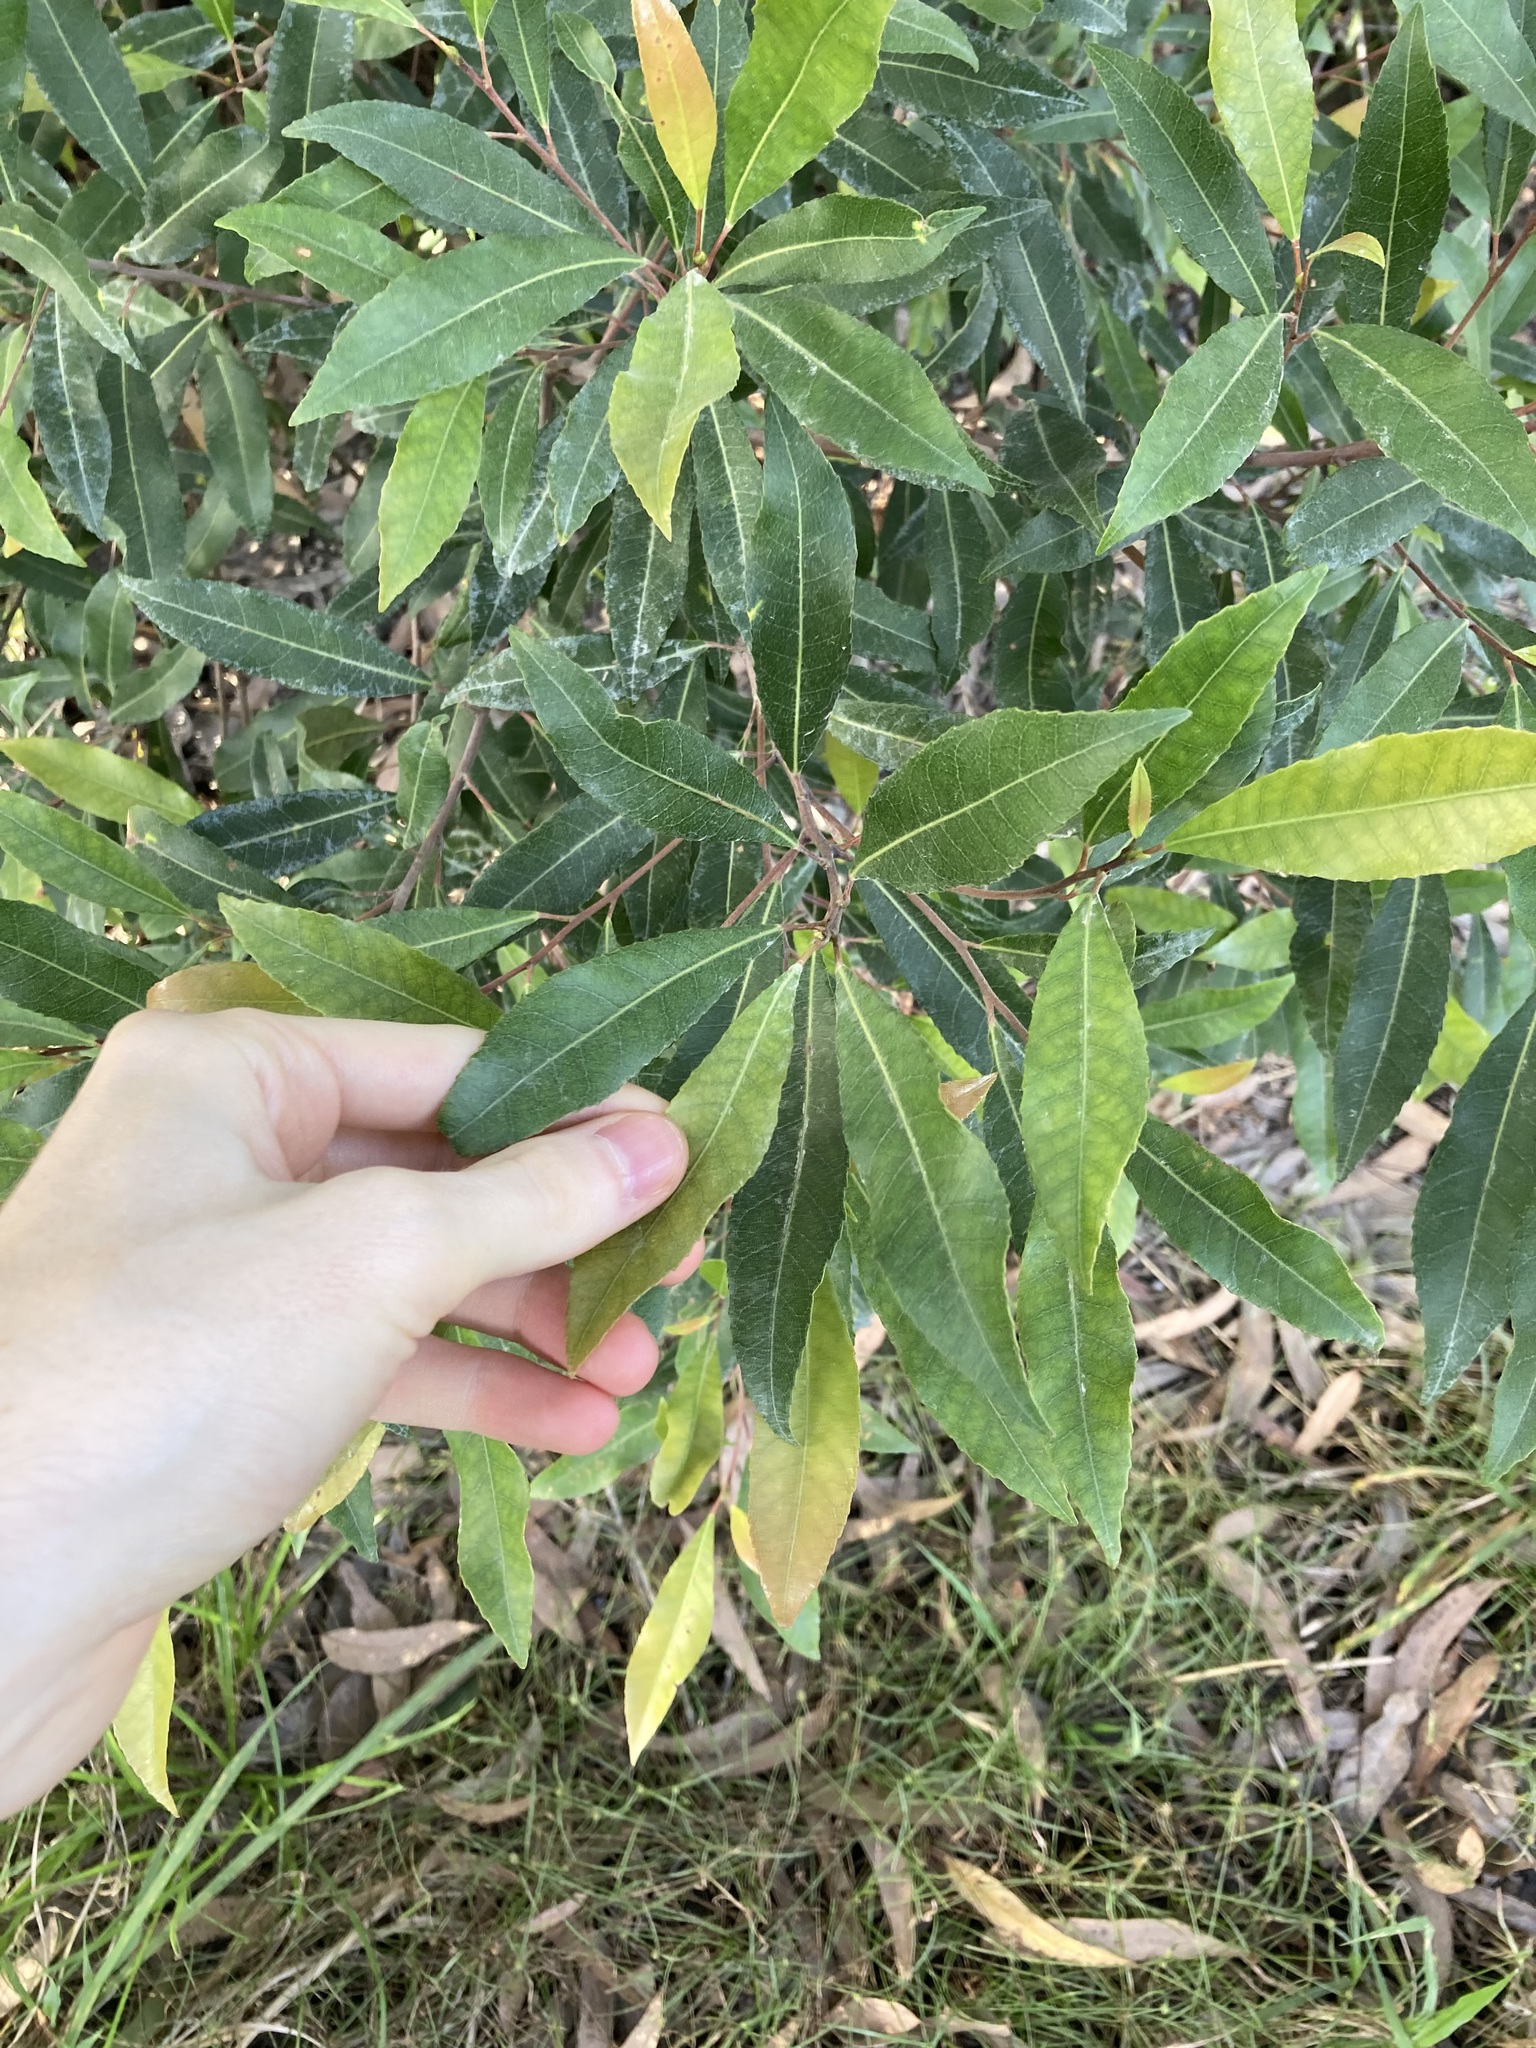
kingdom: Plantae
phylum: Tracheophyta
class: Magnoliopsida
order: Oxalidales
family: Elaeocarpaceae
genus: Elaeocarpus
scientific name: Elaeocarpus reticulatus
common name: Ash quandong
